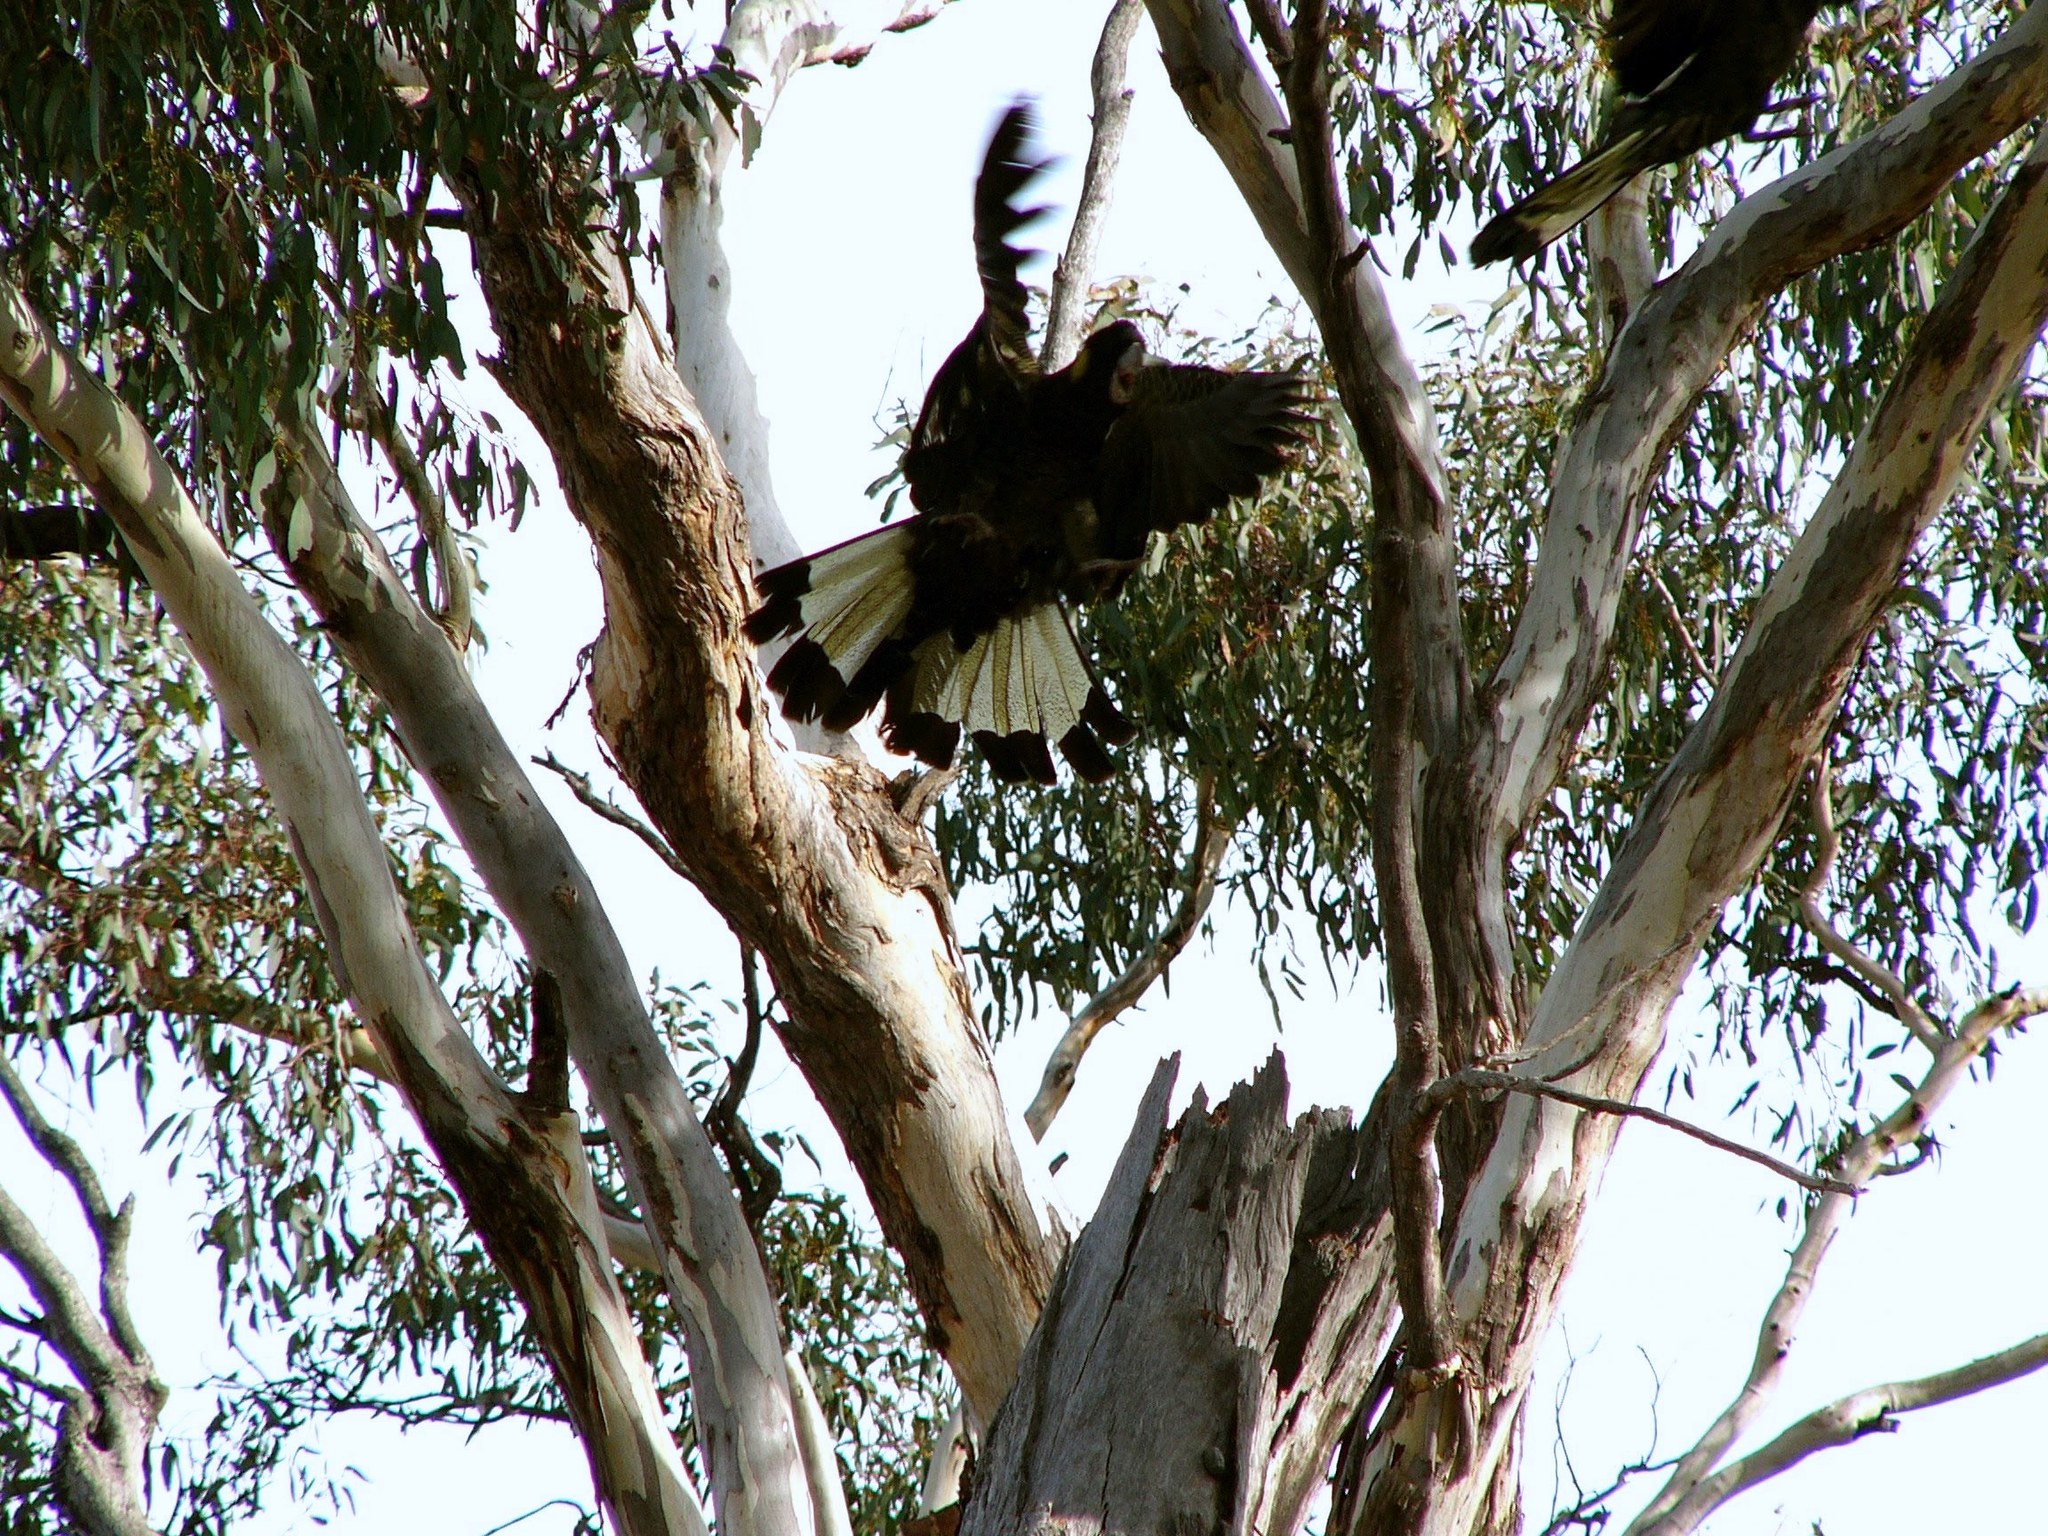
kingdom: Animalia
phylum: Chordata
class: Aves
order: Psittaciformes
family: Cacatuidae
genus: Zanda
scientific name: Zanda funerea
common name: Yellow-tailed black-cockatoo
